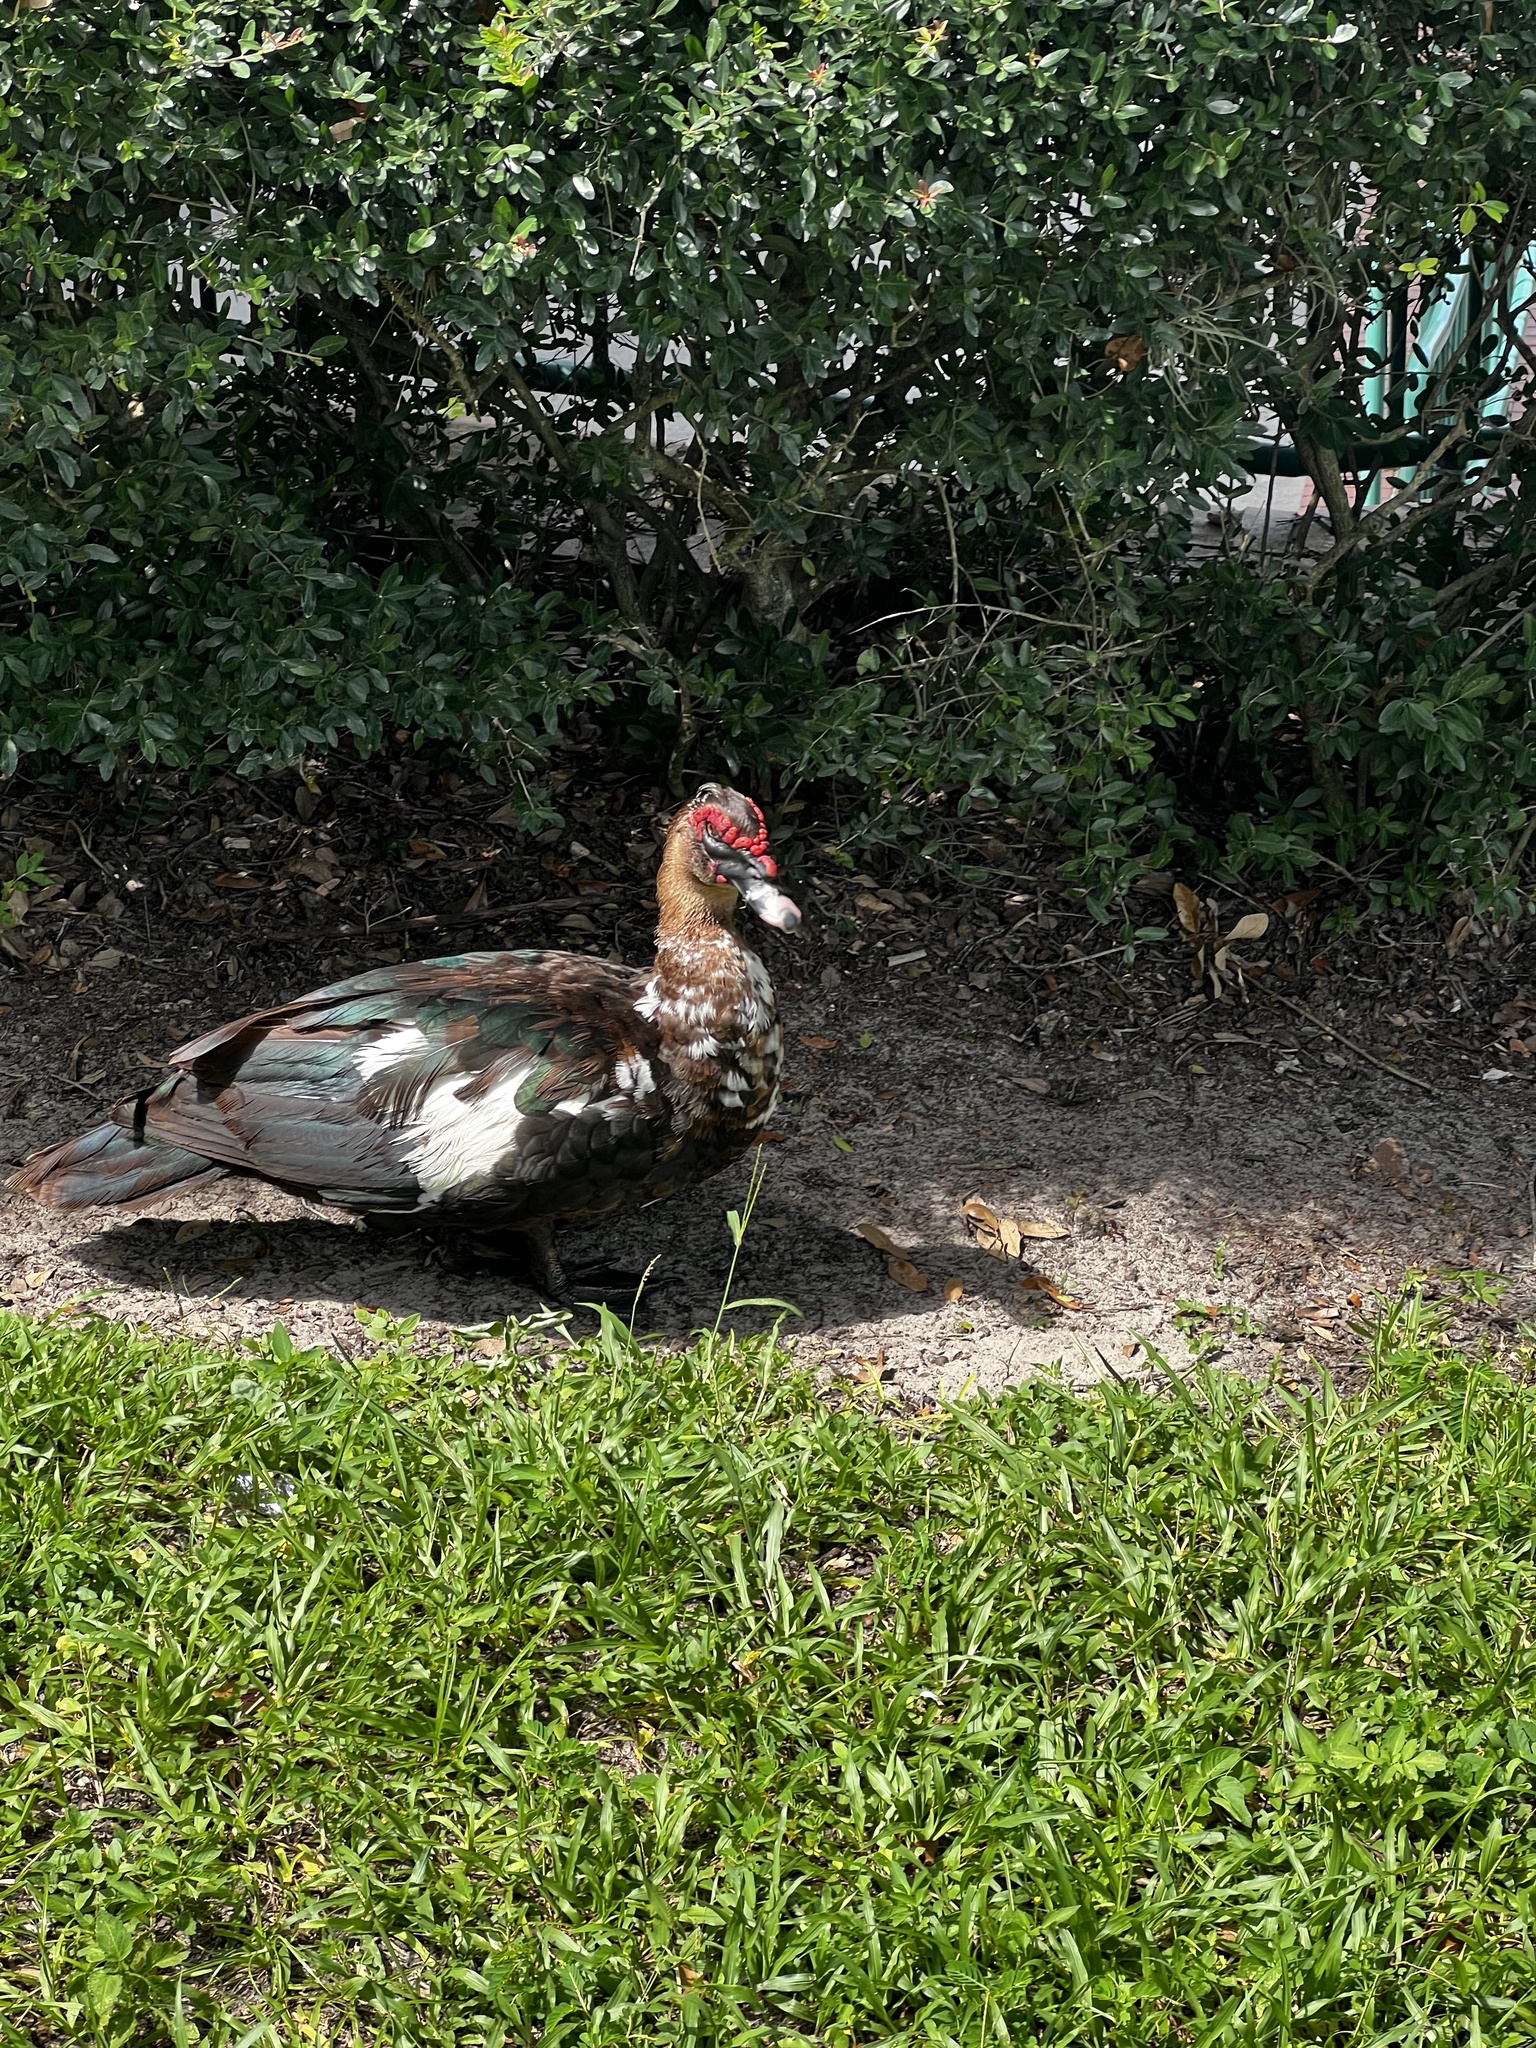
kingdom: Animalia
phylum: Chordata
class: Aves
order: Anseriformes
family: Anatidae
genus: Cairina
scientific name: Cairina moschata
